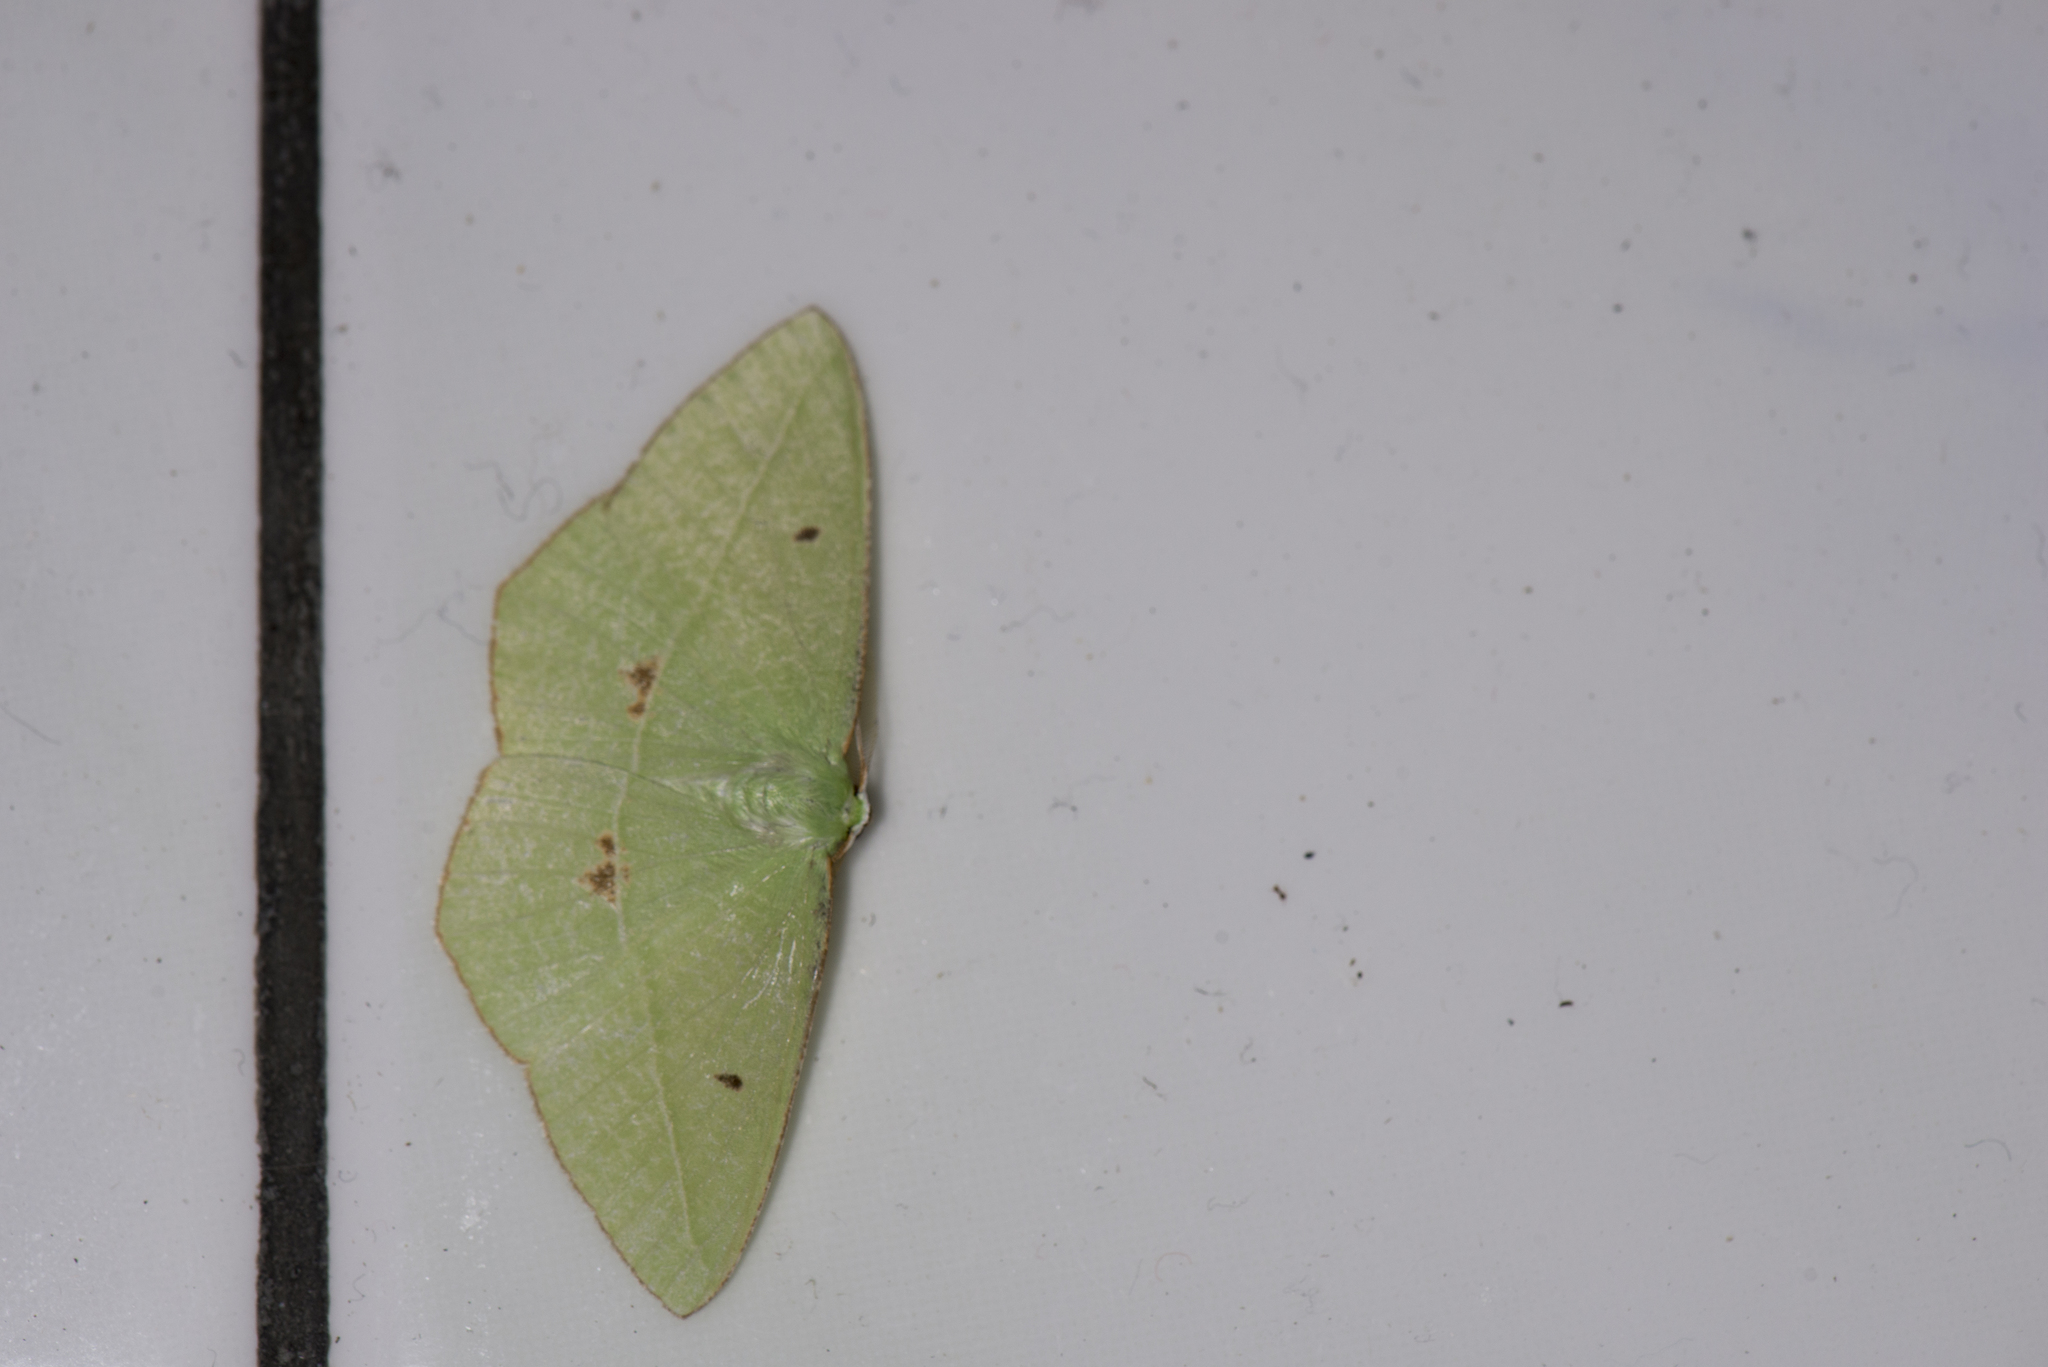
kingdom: Animalia
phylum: Arthropoda
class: Insecta
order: Lepidoptera
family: Geometridae
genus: Tanaoctenia
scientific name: Tanaoctenia haliaria
